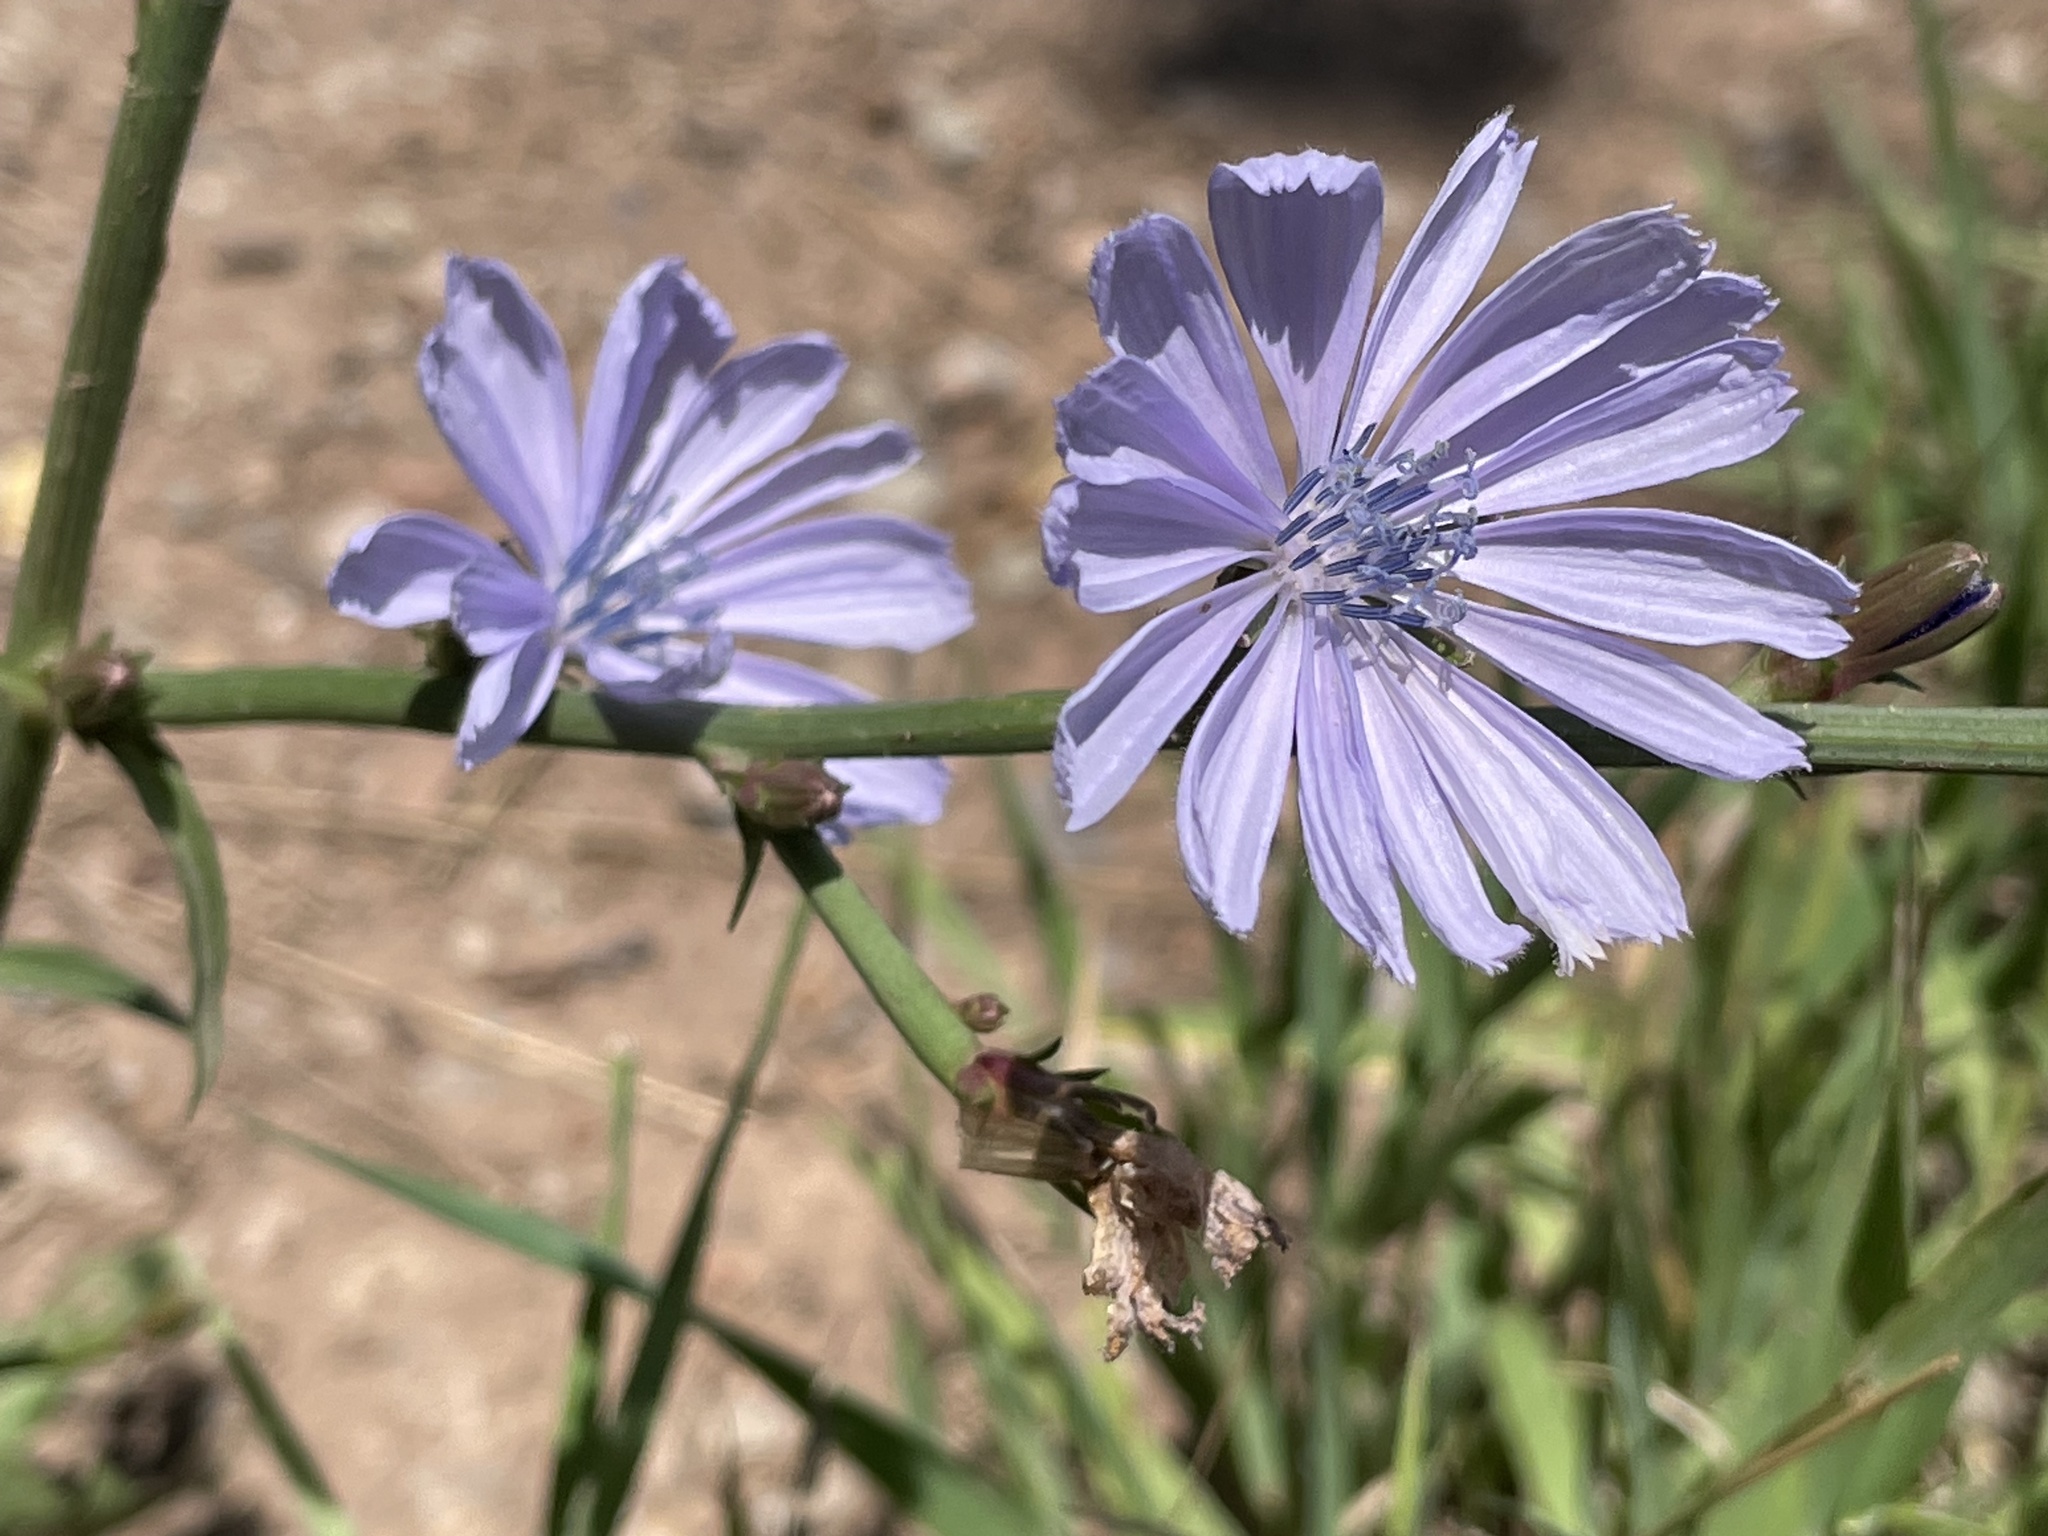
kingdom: Plantae
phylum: Tracheophyta
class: Magnoliopsida
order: Asterales
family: Asteraceae
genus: Cichorium
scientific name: Cichorium intybus
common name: Chicory
